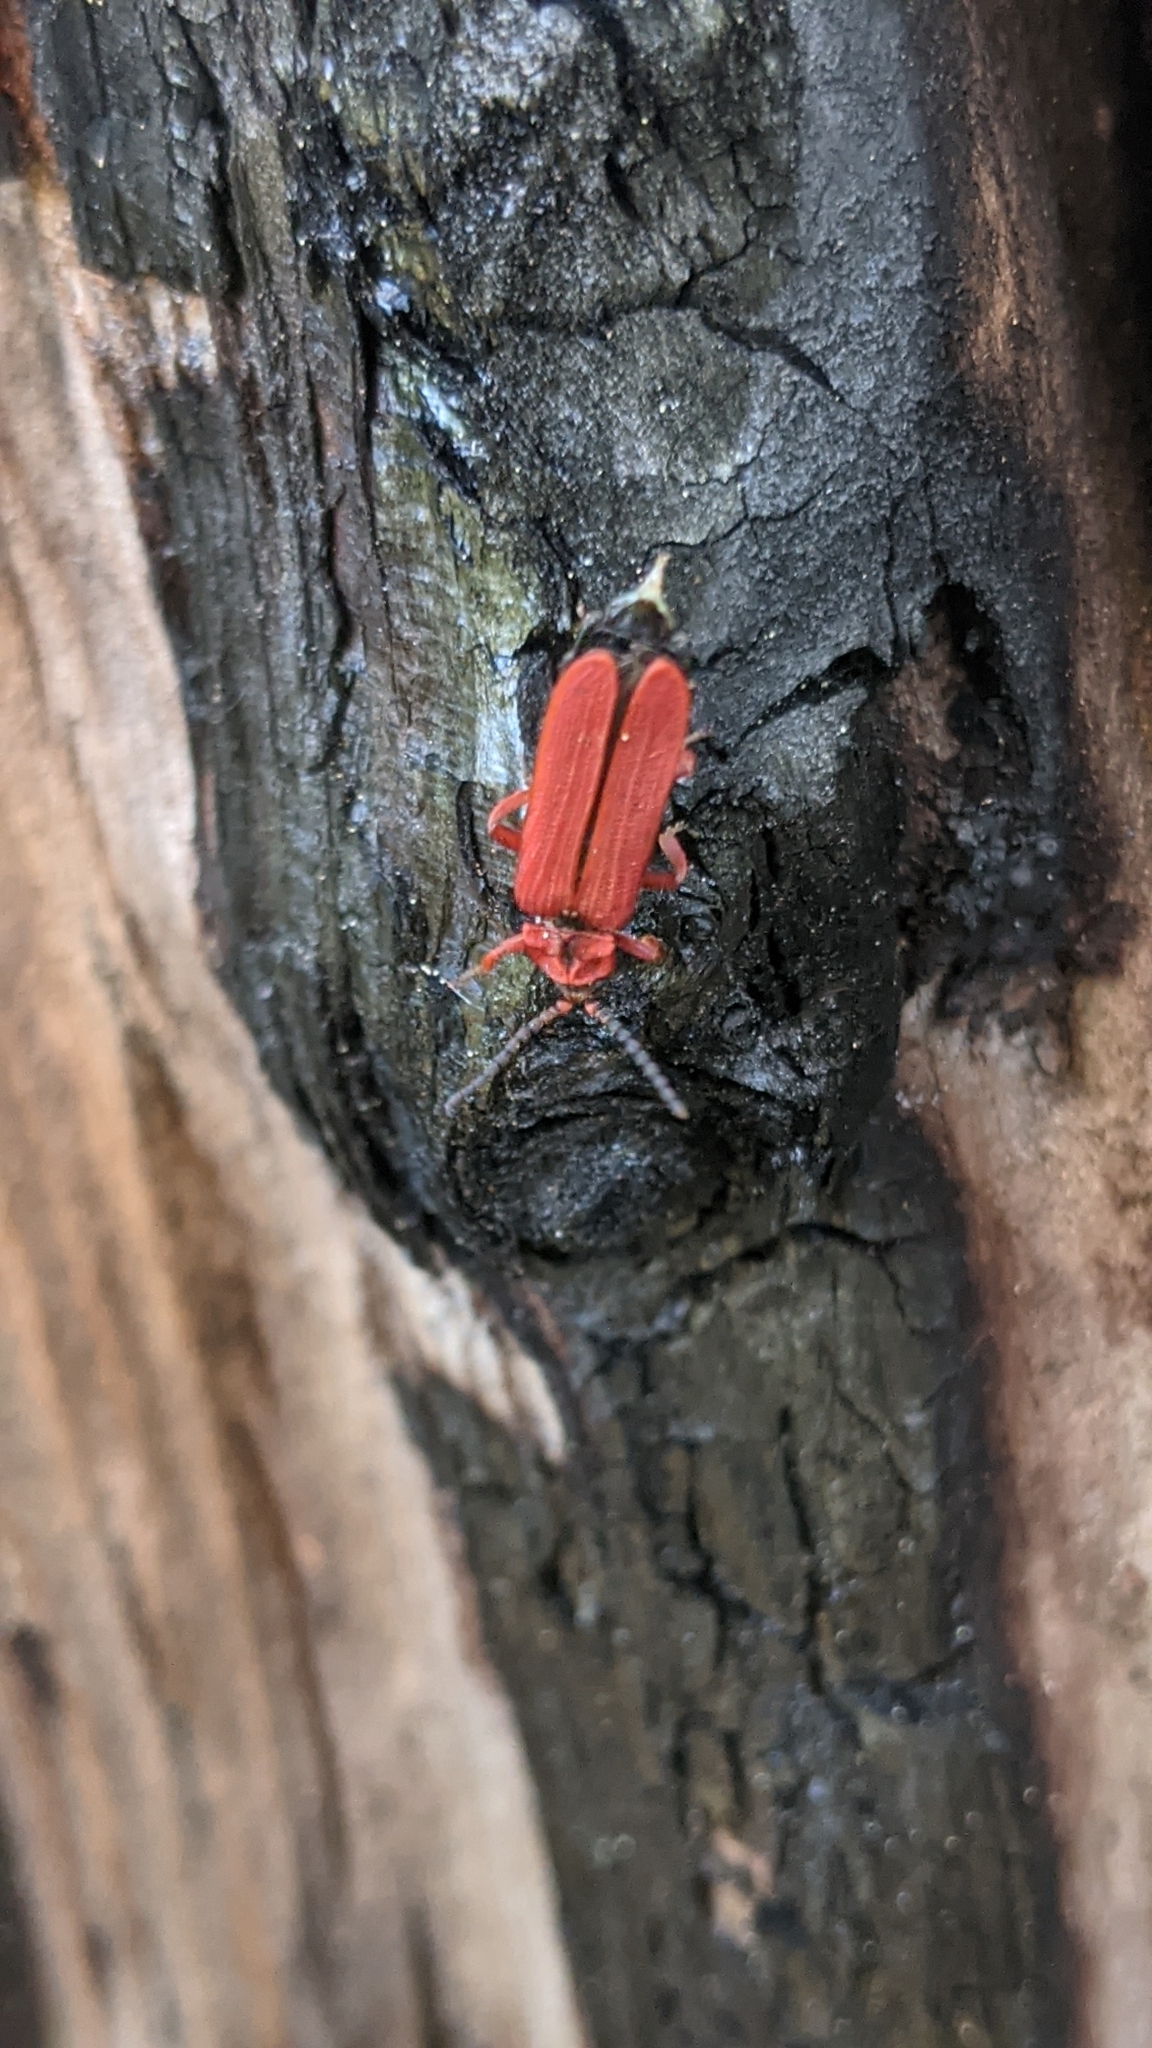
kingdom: Animalia
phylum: Arthropoda
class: Insecta
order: Coleoptera
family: Lycidae
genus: Dictyoptera
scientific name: Dictyoptera simplicipes
